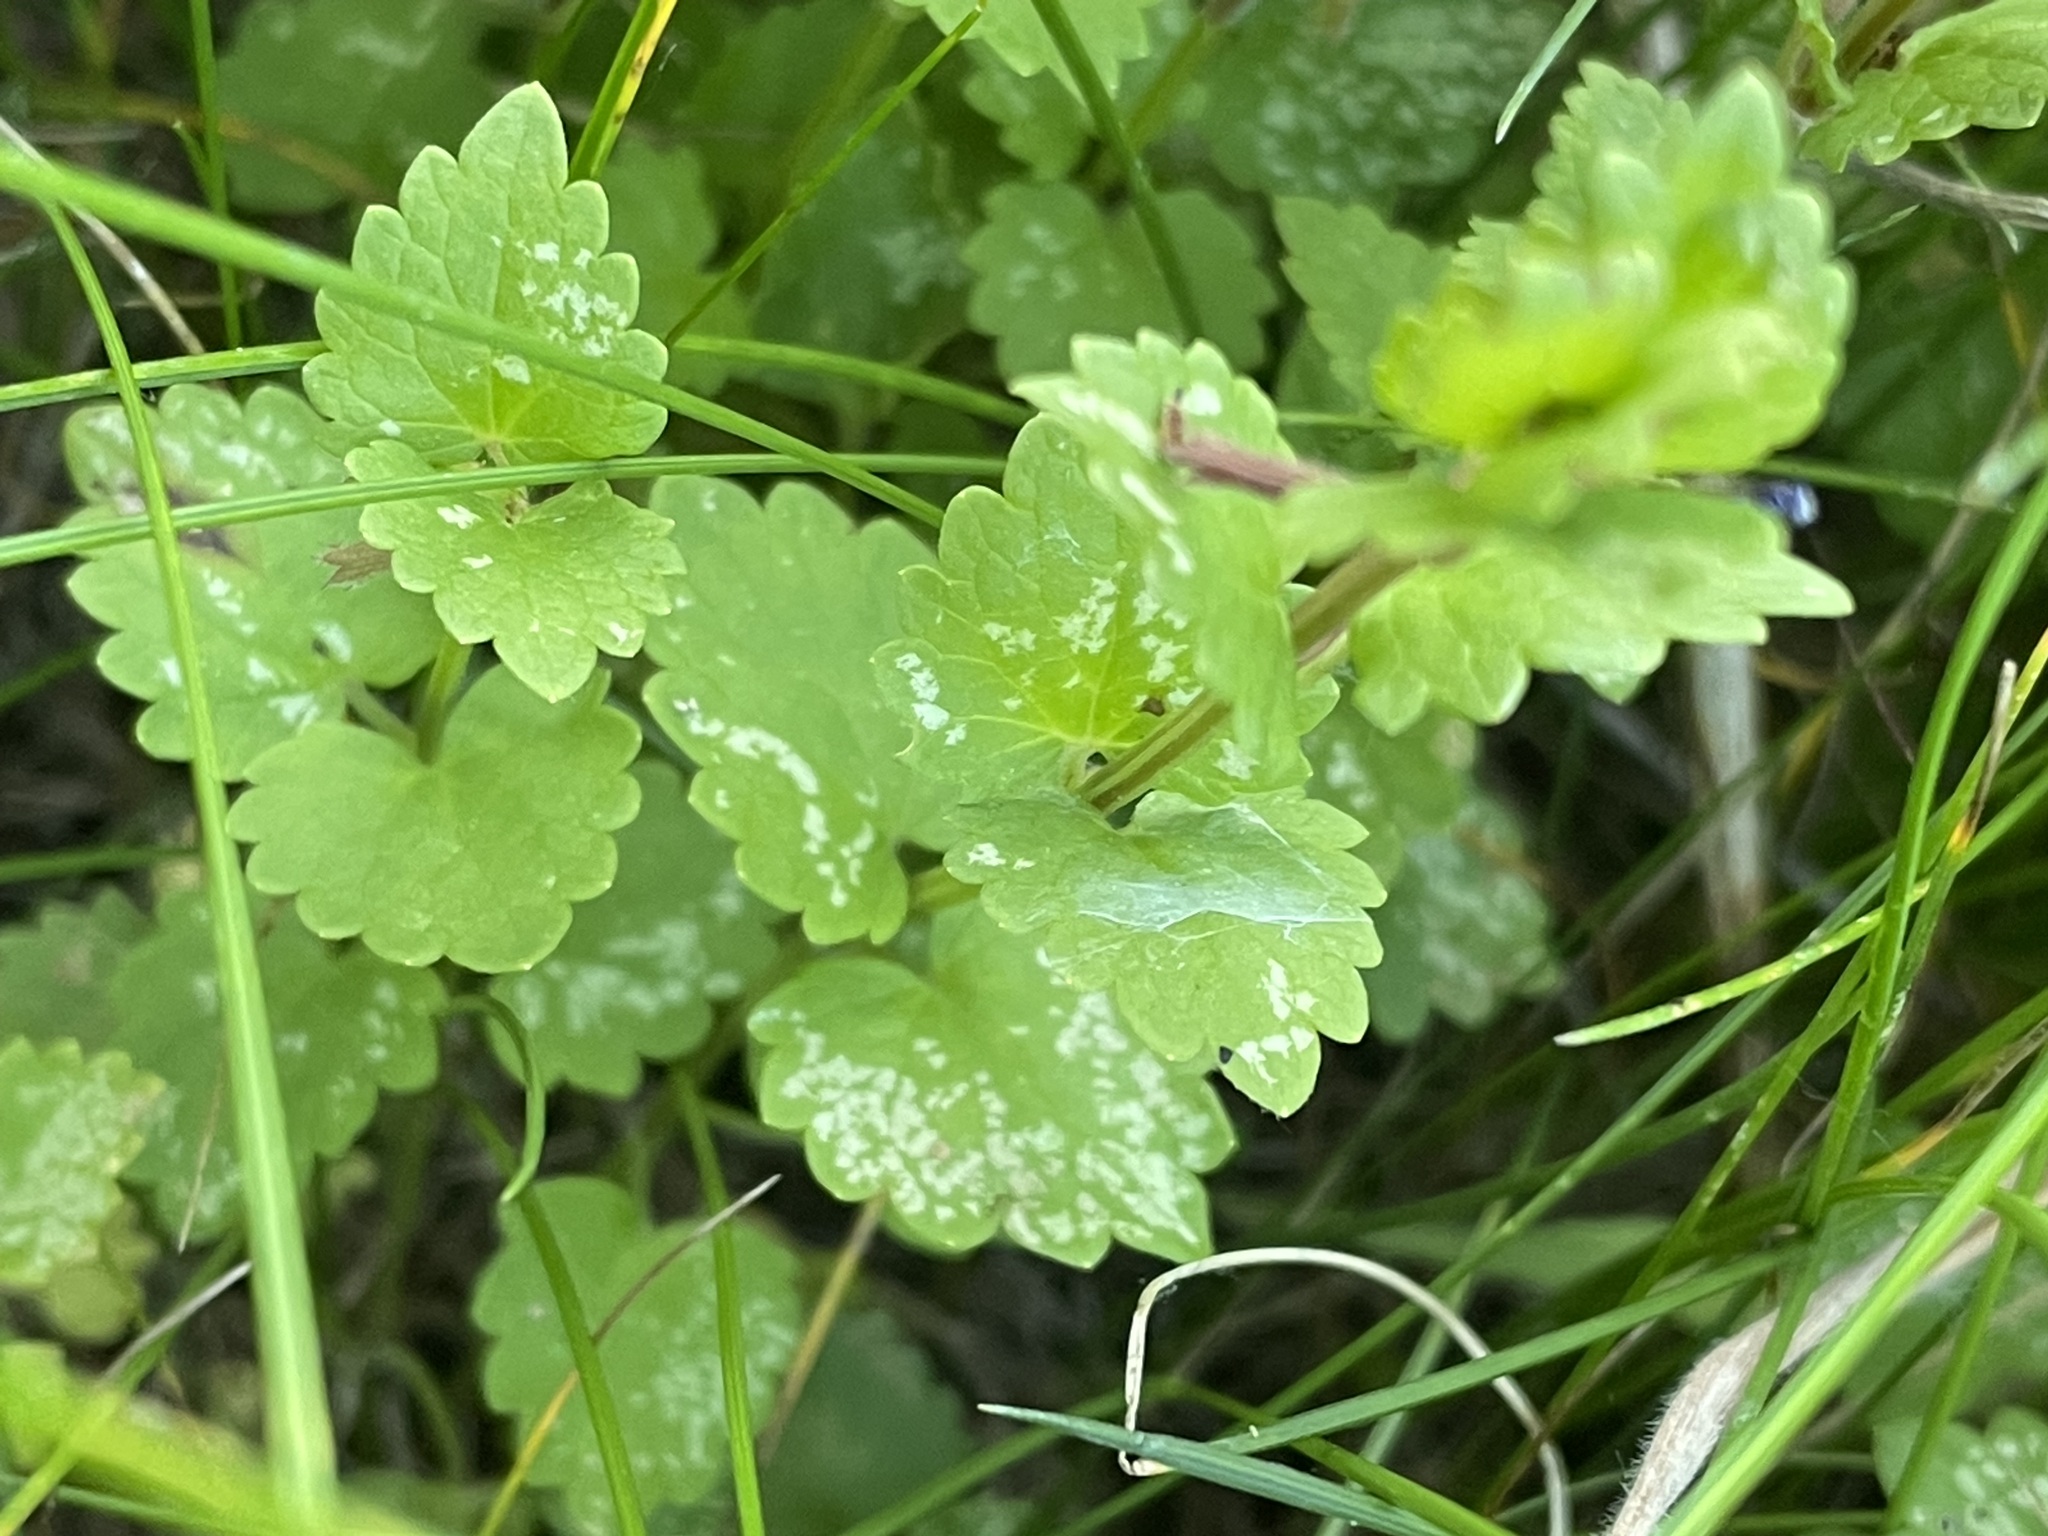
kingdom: Plantae
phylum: Tracheophyta
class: Magnoliopsida
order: Lamiales
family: Lamiaceae
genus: Glechoma
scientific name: Glechoma hederacea
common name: Ground ivy
